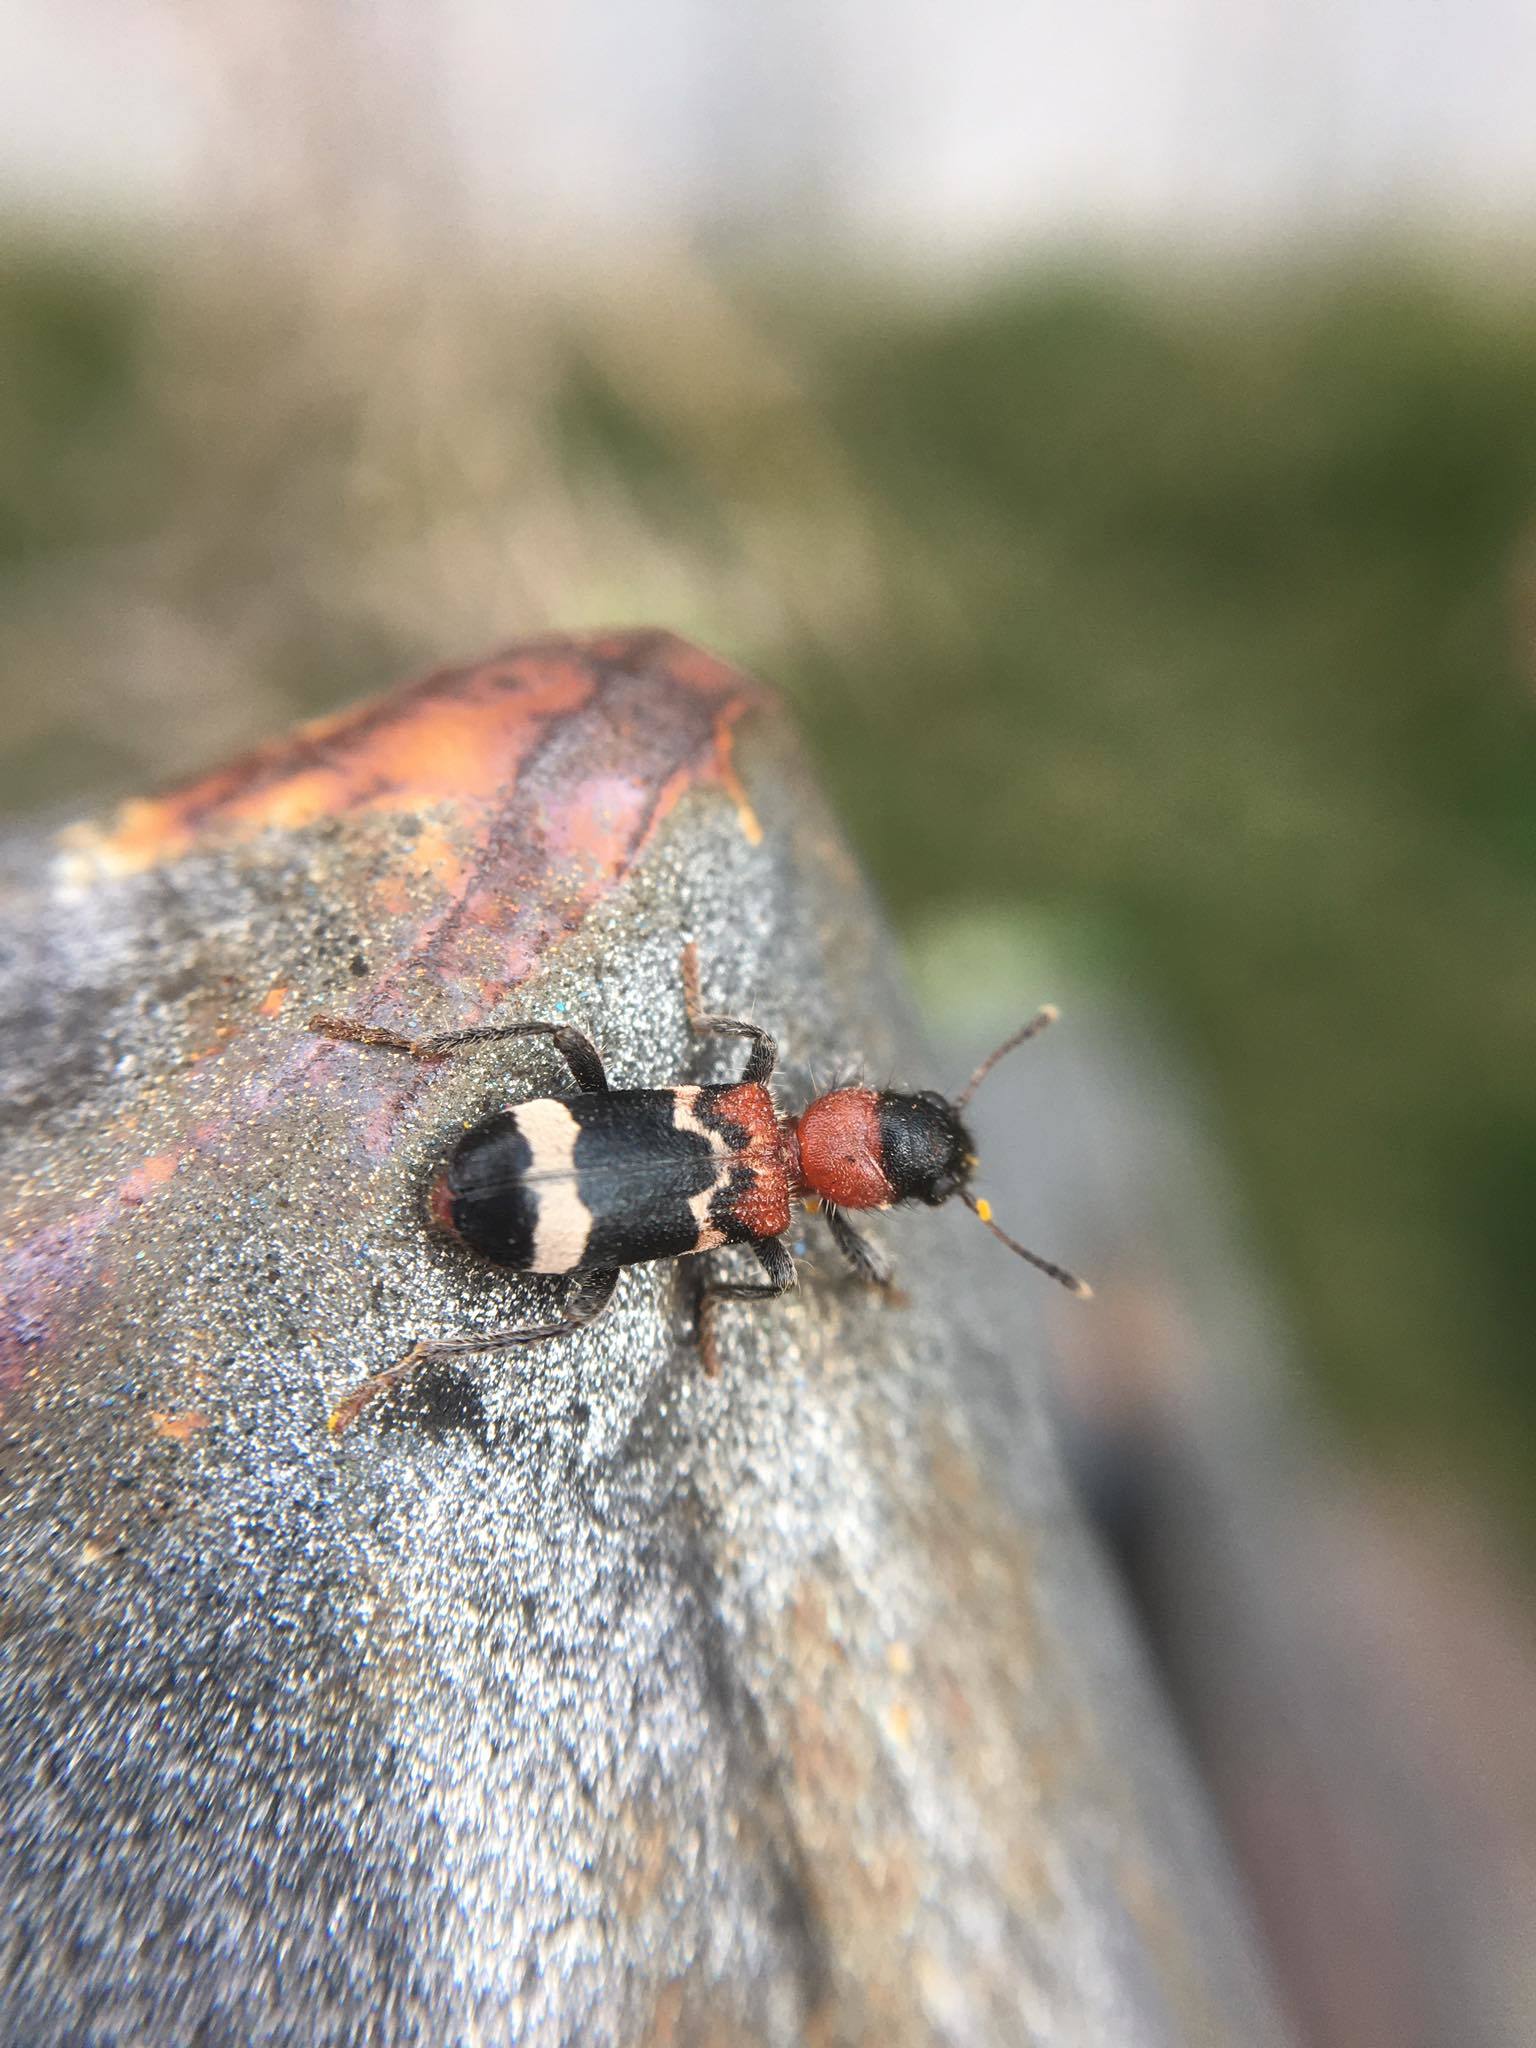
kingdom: Animalia
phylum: Arthropoda
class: Insecta
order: Coleoptera
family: Cleridae
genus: Thanasimus
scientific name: Thanasimus formicarius
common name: Ant beetle
